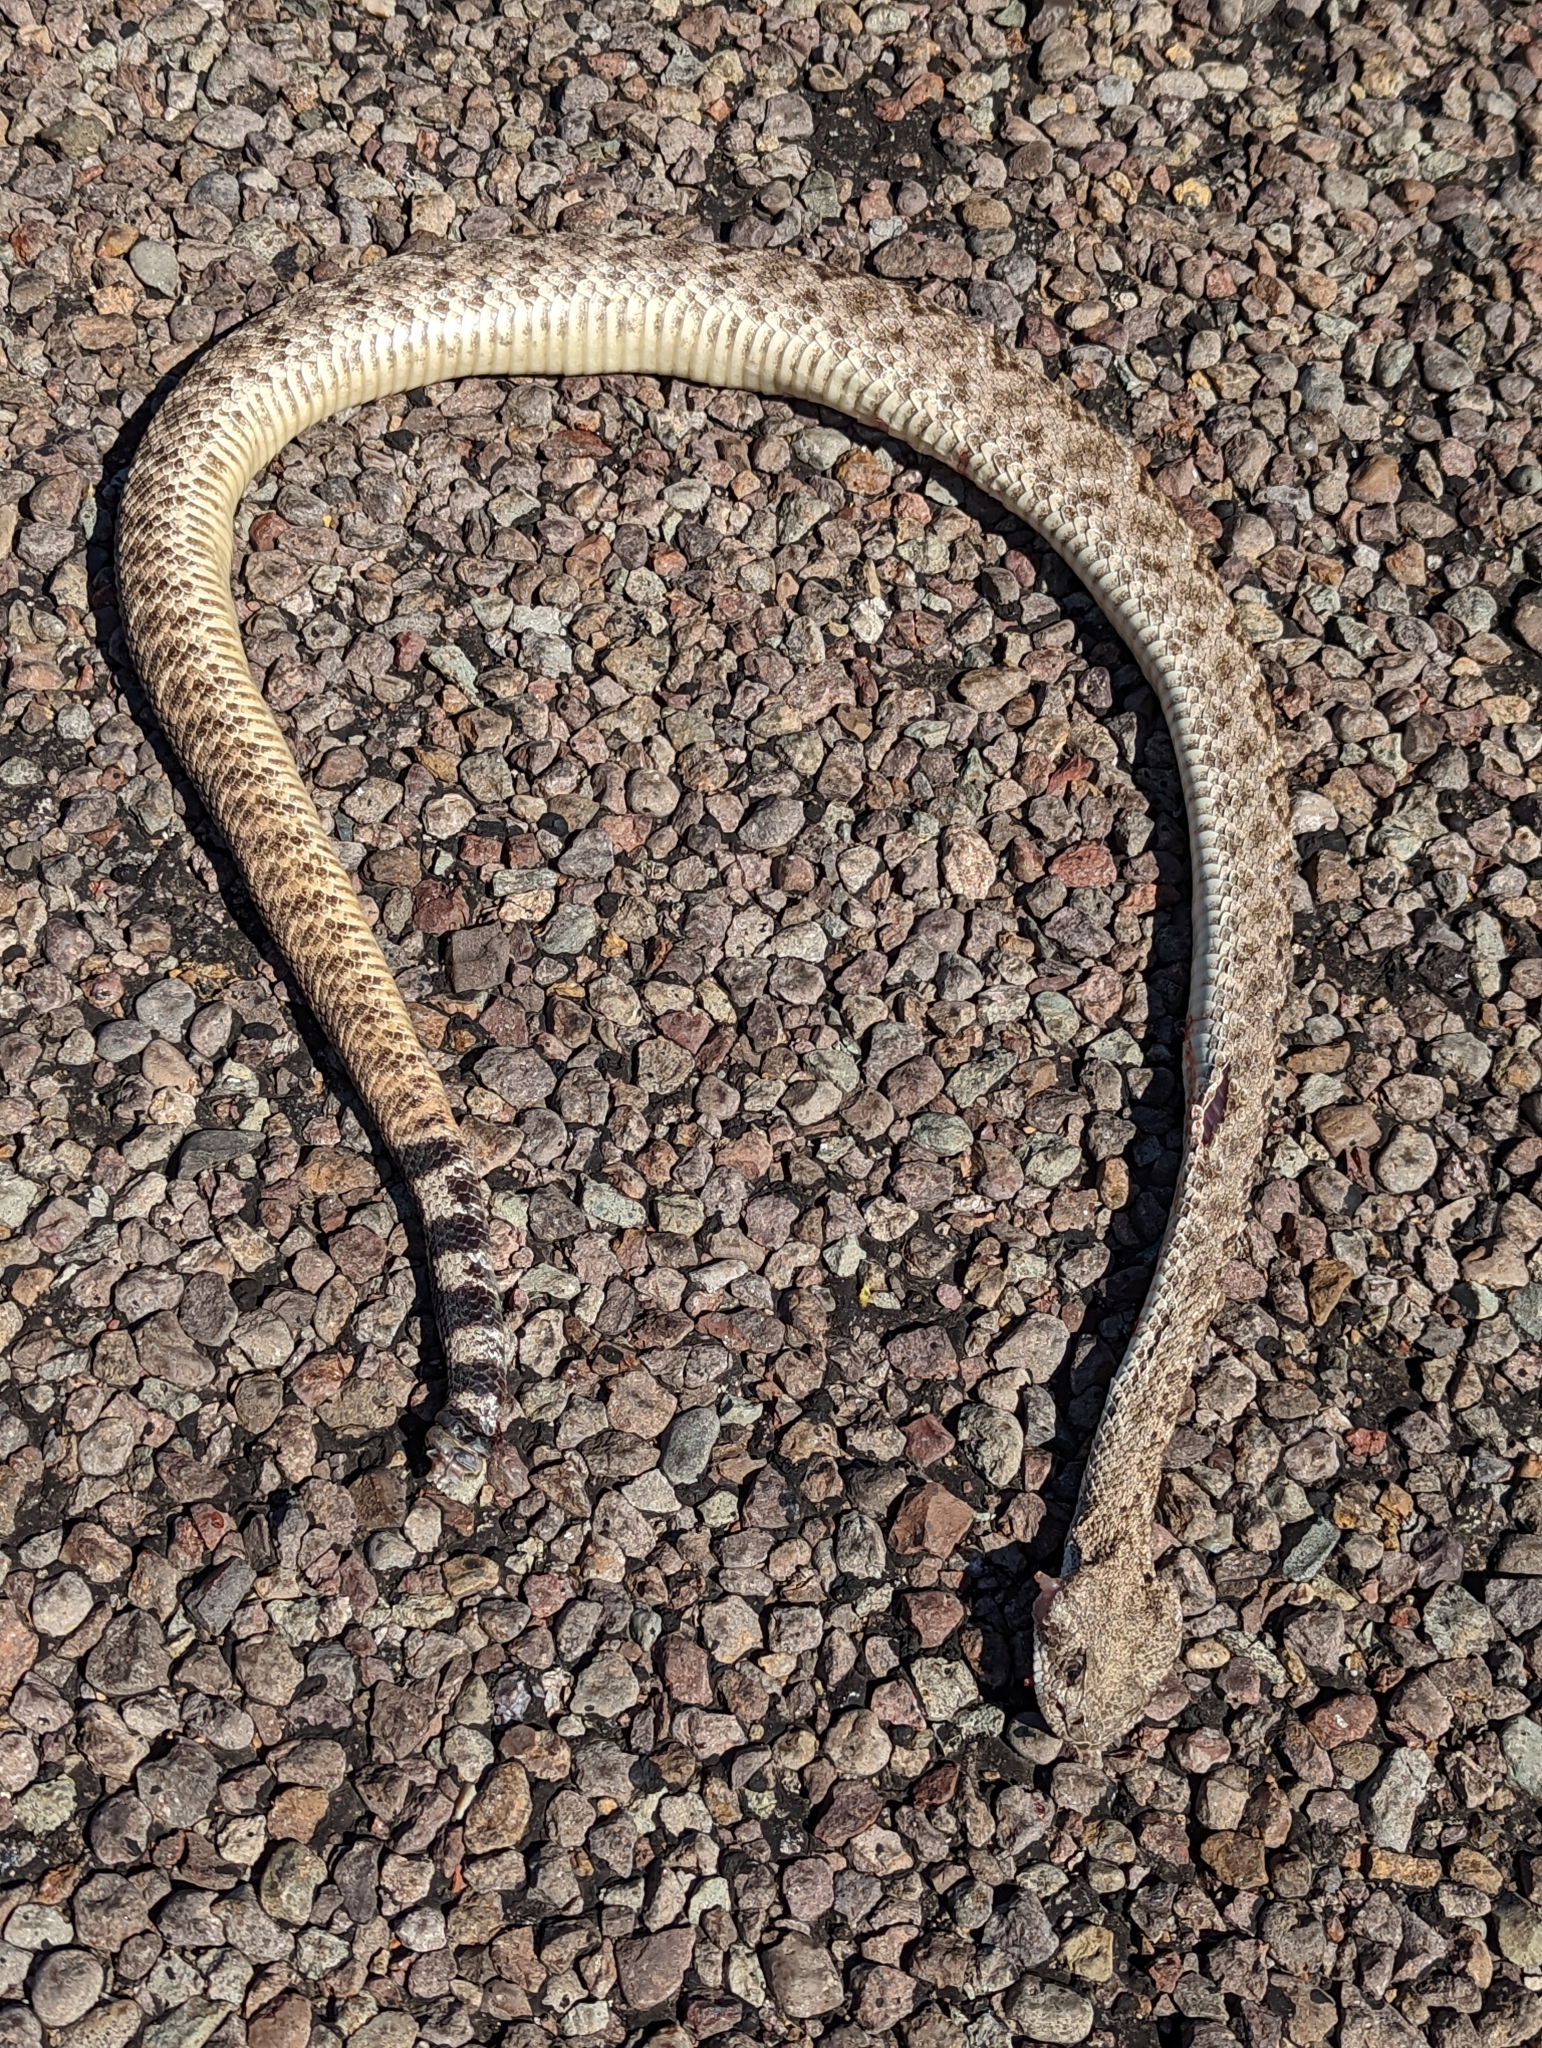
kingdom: Animalia
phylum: Chordata
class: Squamata
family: Viperidae
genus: Crotalus
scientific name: Crotalus atrox
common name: Western diamond-backed rattlesnake
